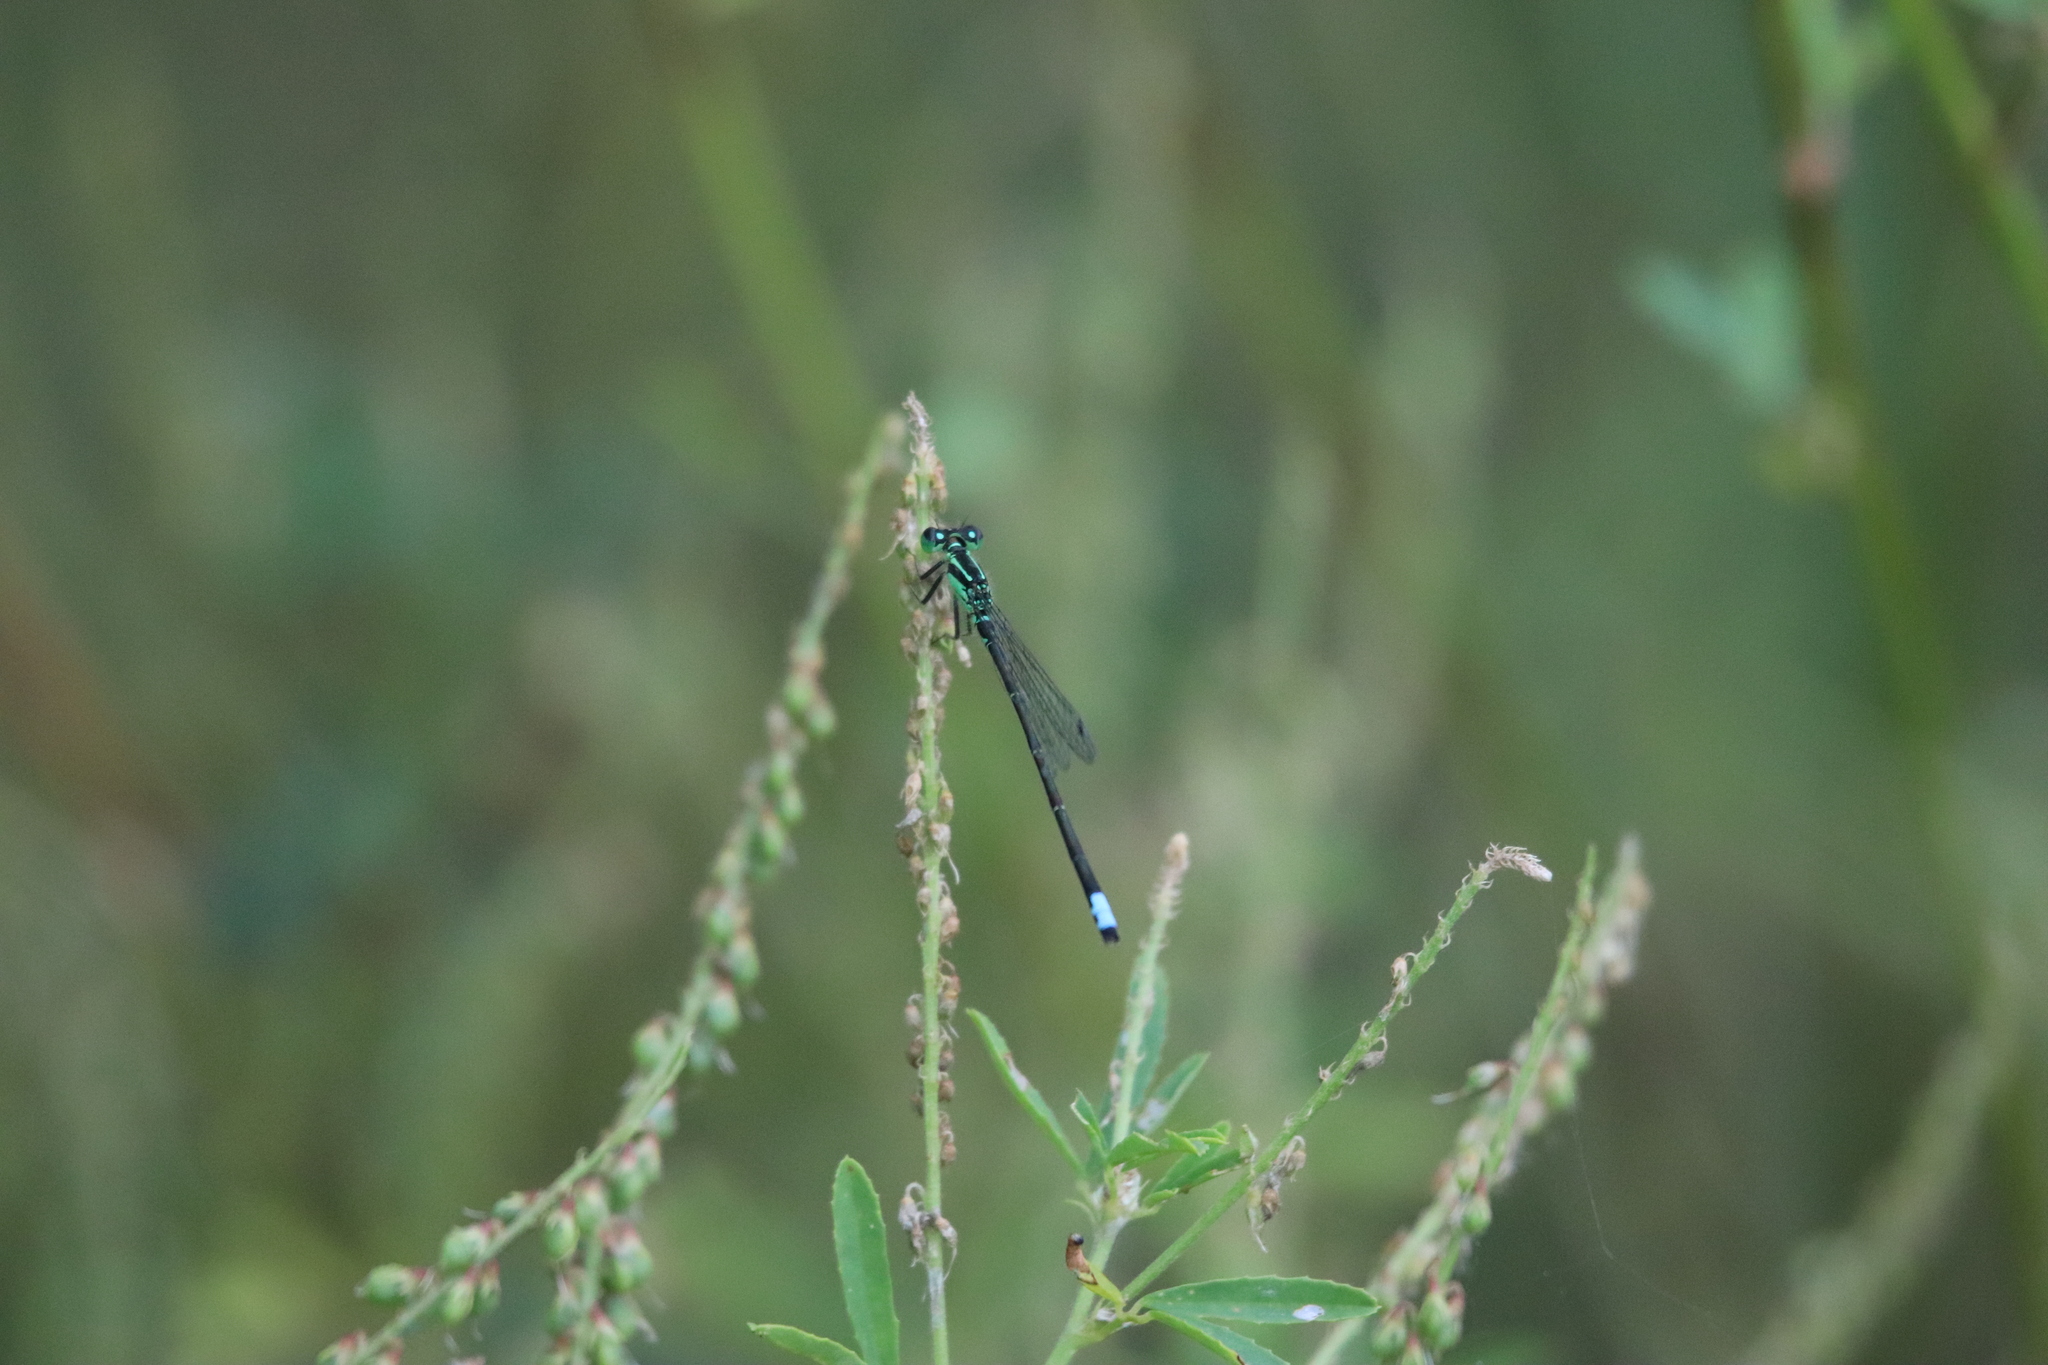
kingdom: Animalia
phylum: Arthropoda
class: Insecta
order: Odonata
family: Coenagrionidae
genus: Ischnura
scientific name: Ischnura verticalis
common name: Eastern forktail
